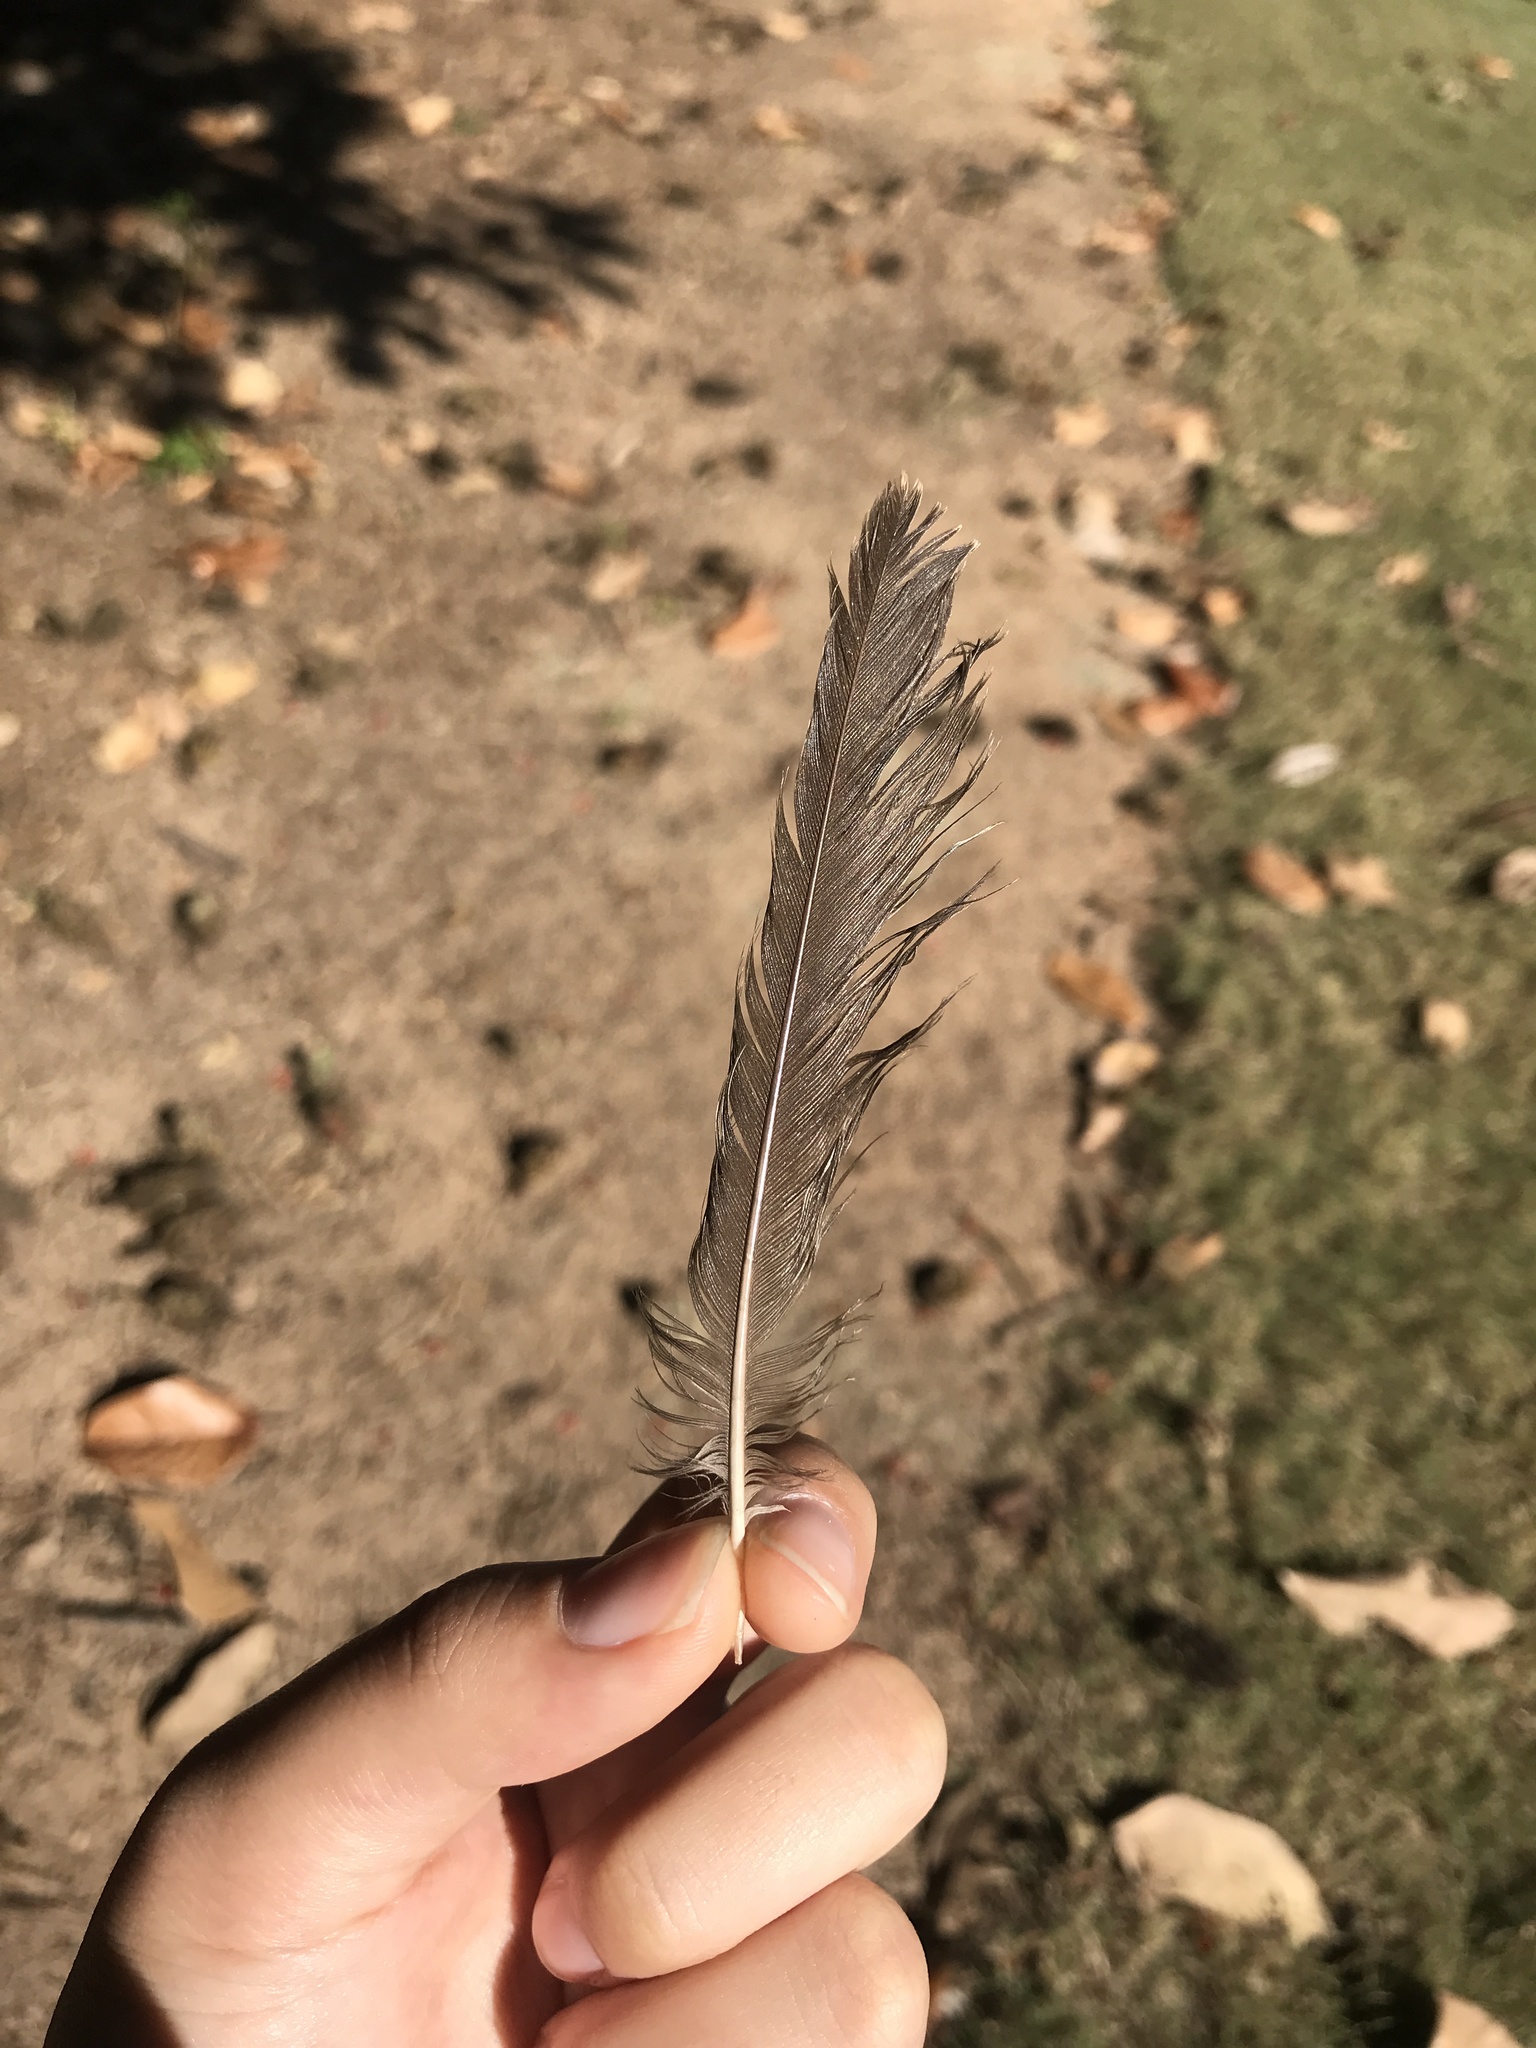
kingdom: Animalia
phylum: Chordata
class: Aves
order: Passeriformes
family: Turdidae
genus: Turdus
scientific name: Turdus migratorius
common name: American robin
